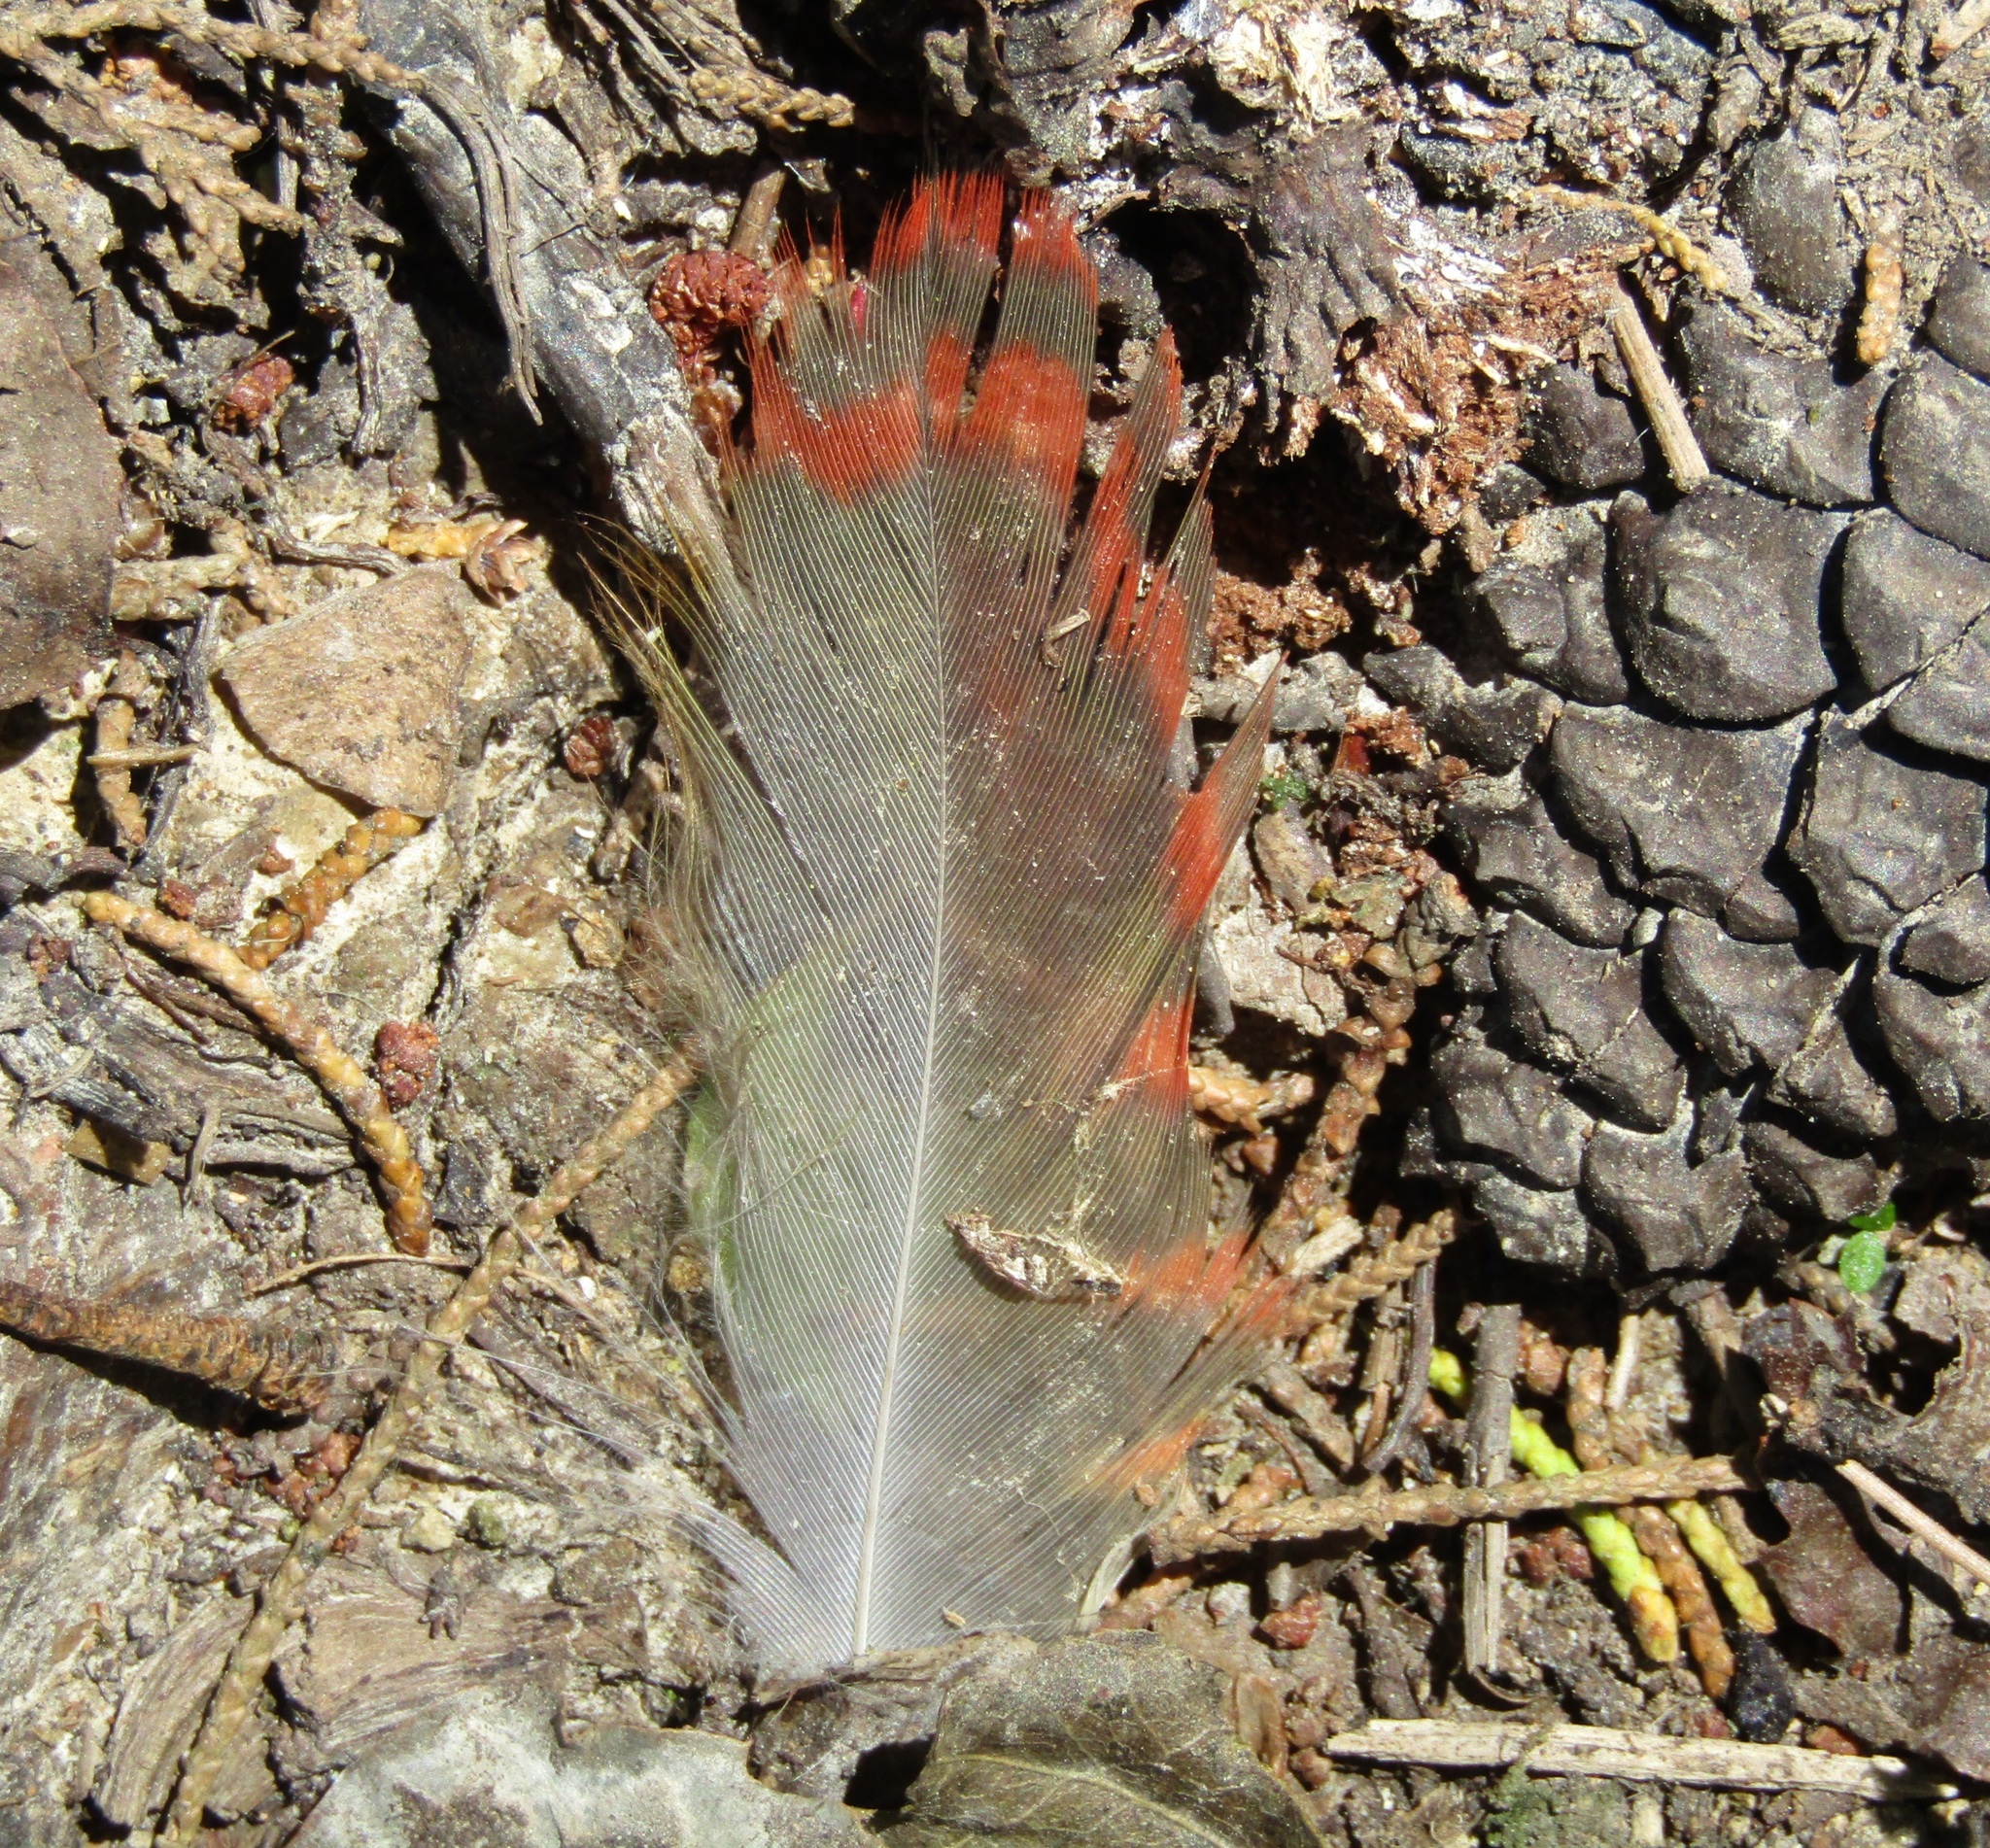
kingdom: Animalia
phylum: Chordata
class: Aves
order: Psittaciformes
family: Psittacidae
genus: Nestor
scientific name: Nestor meridionalis
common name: New zealand kaka
